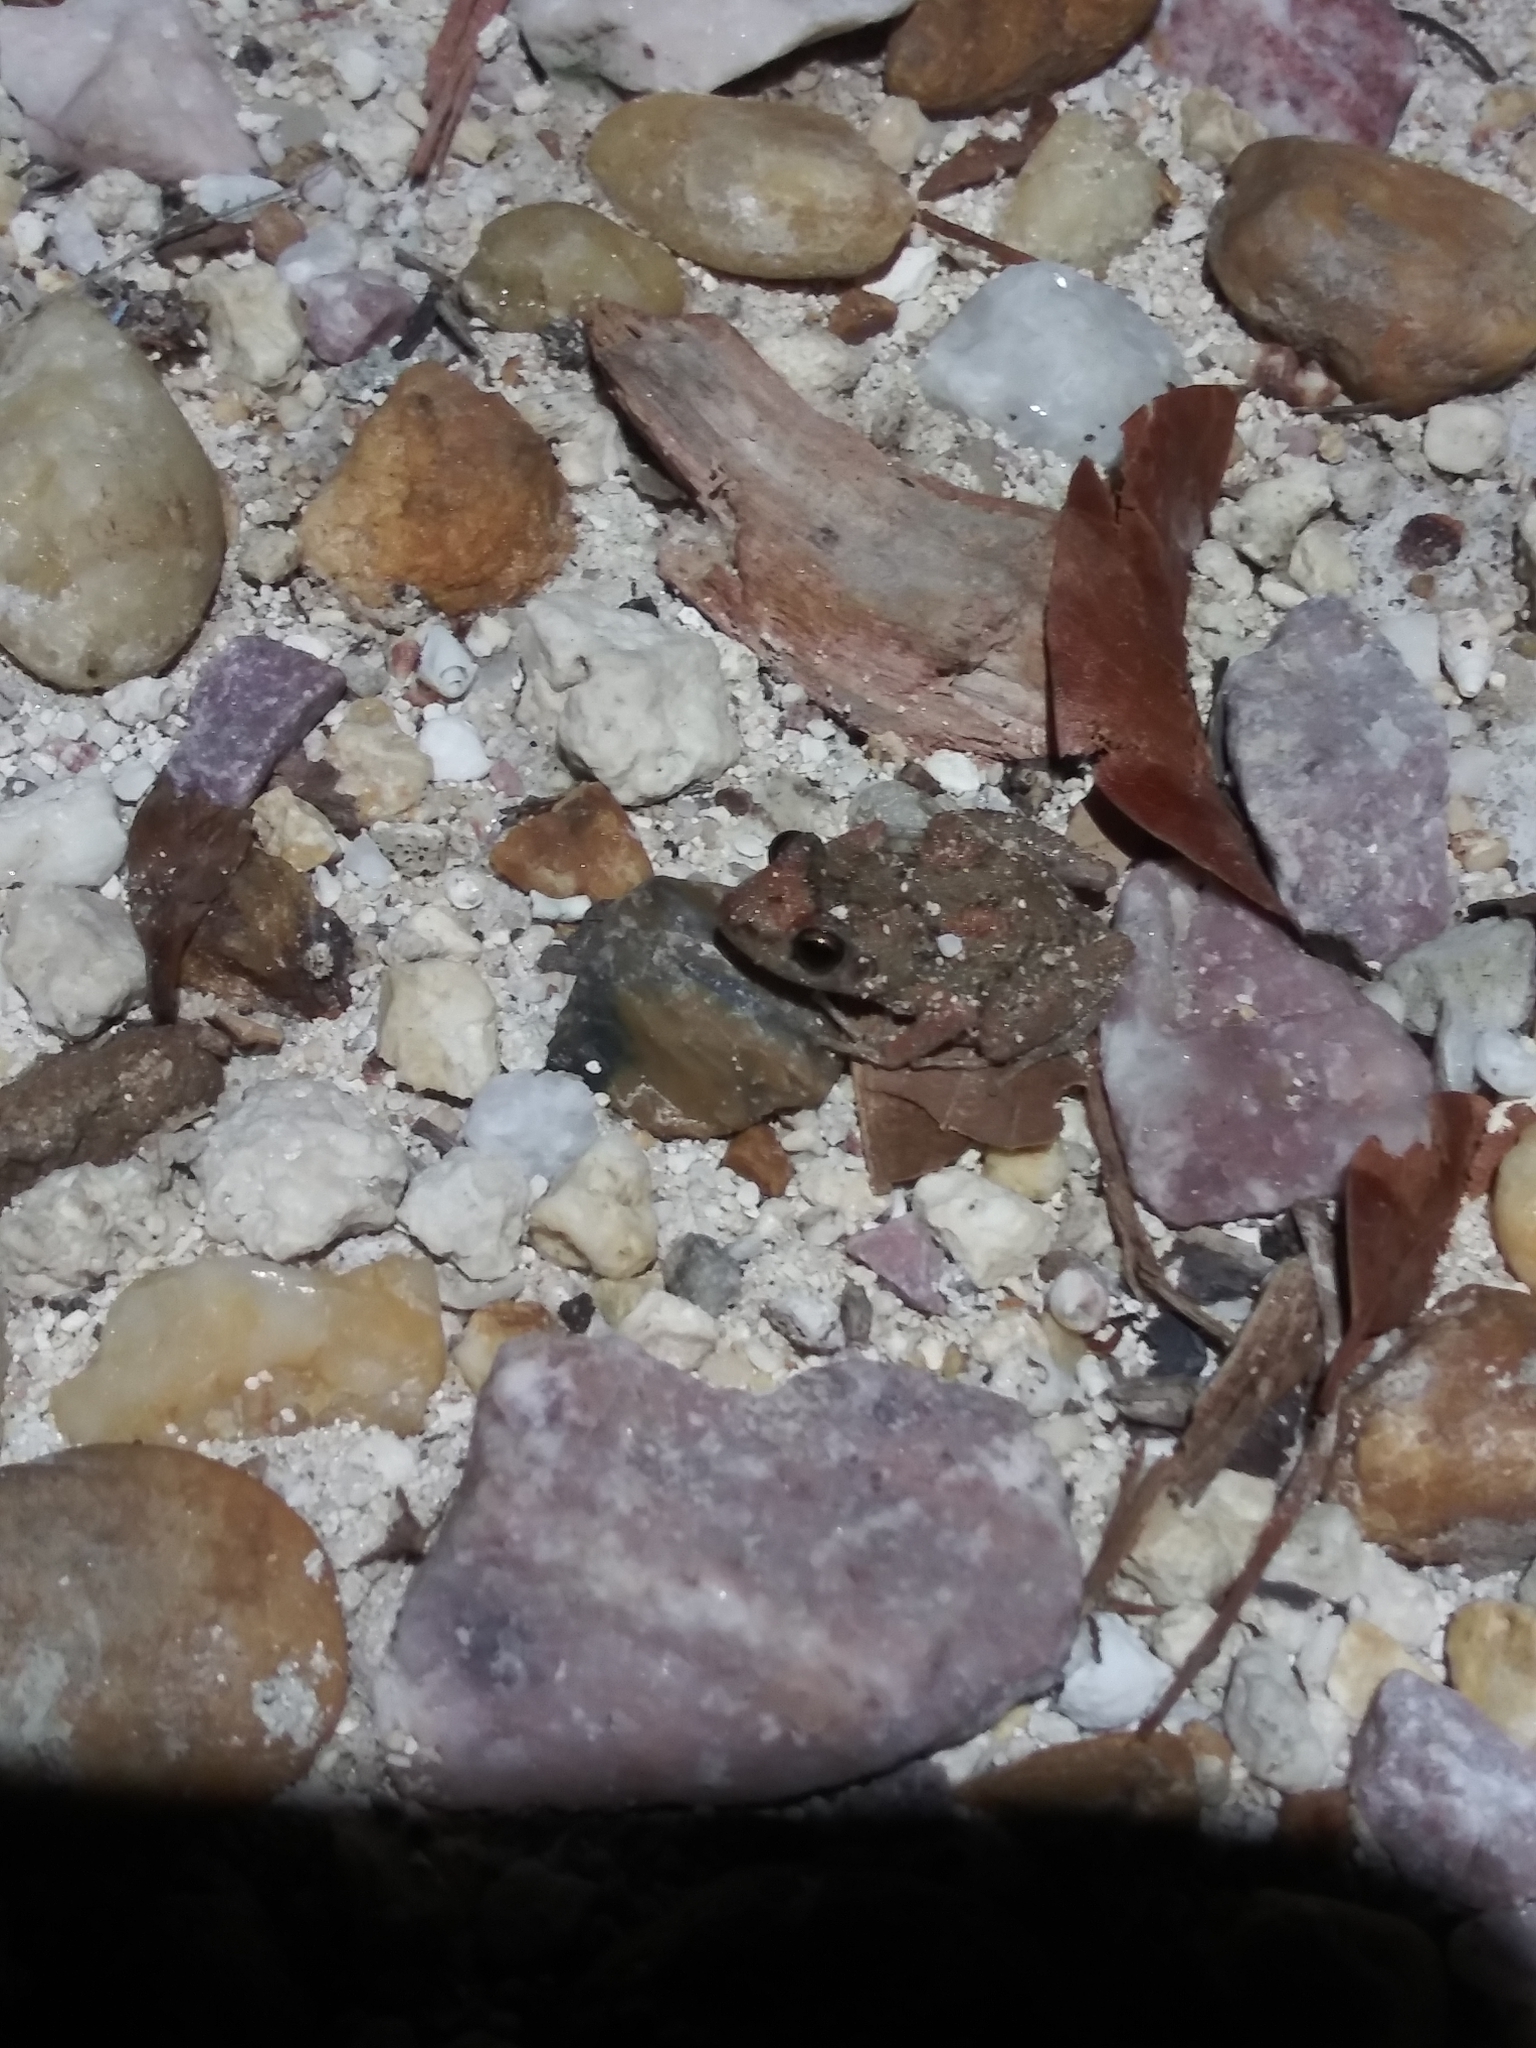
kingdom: Animalia
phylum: Chordata
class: Amphibia
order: Anura
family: Eleutherodactylidae
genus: Eleutherodactylus
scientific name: Eleutherodactylus planirostris
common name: Greenhouse frog
